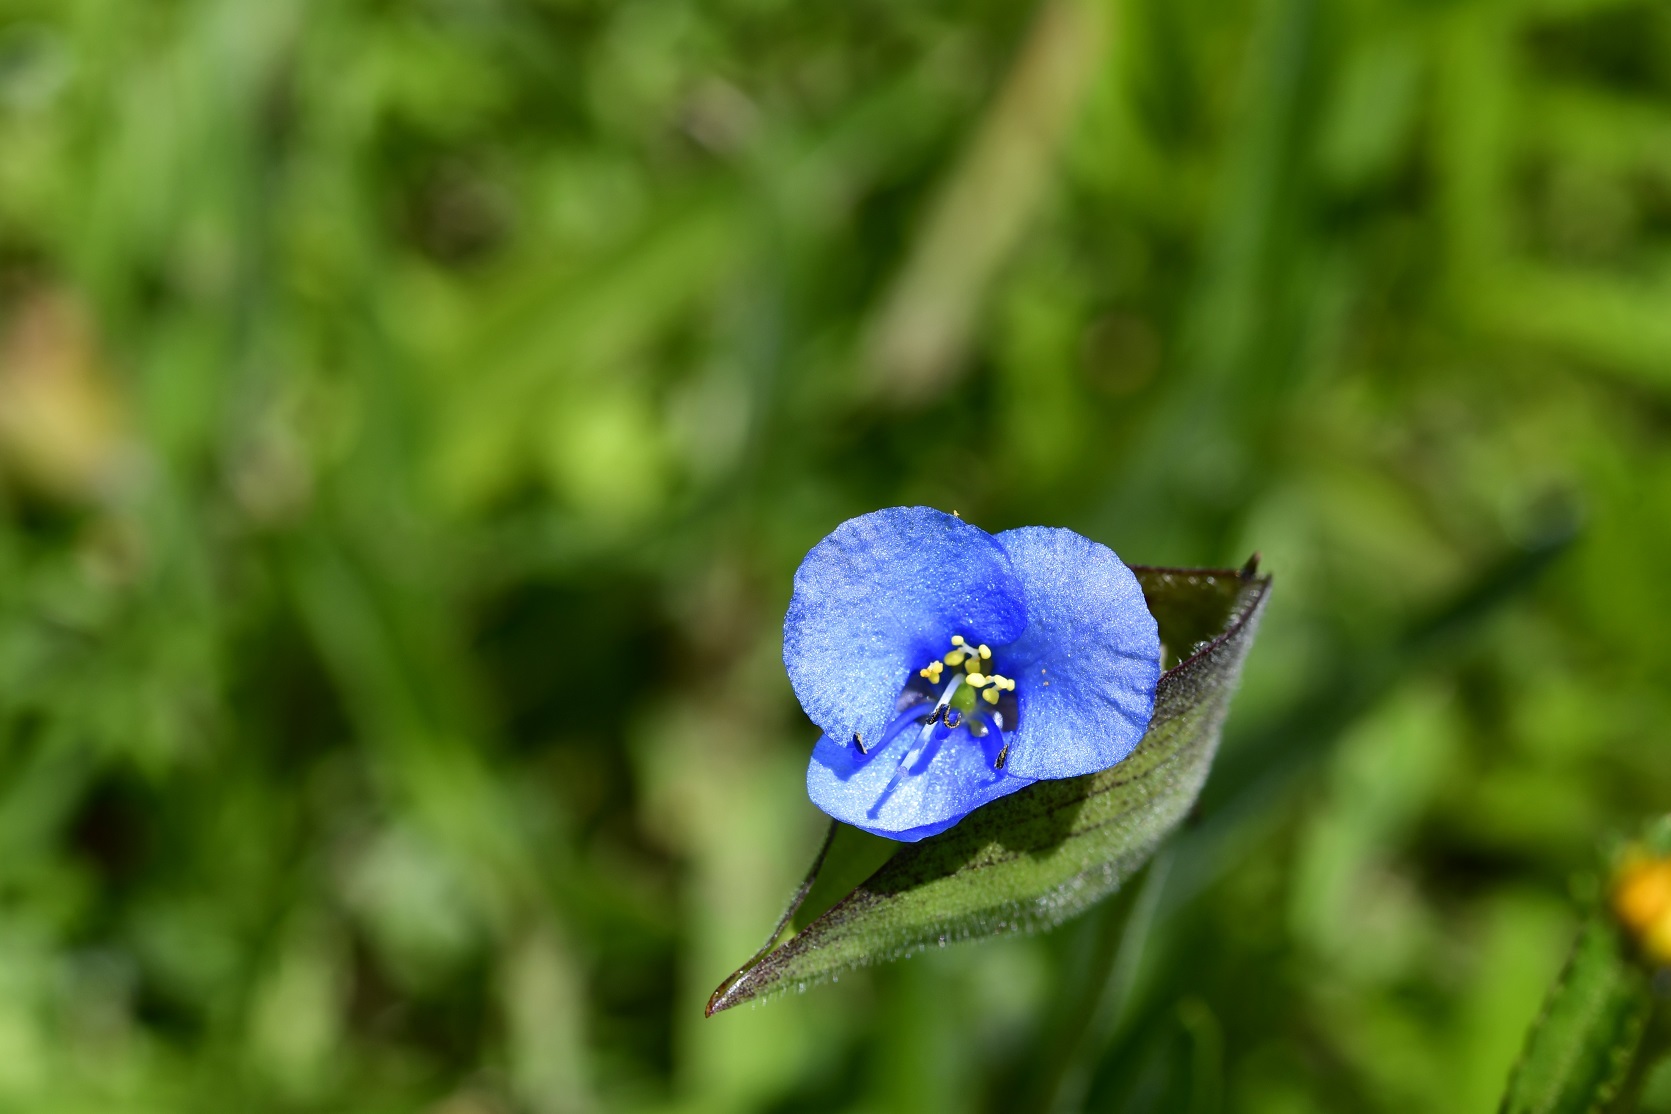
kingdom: Plantae
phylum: Tracheophyta
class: Liliopsida
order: Commelinales
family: Commelinaceae
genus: Commelina
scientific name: Commelina tuberosa
